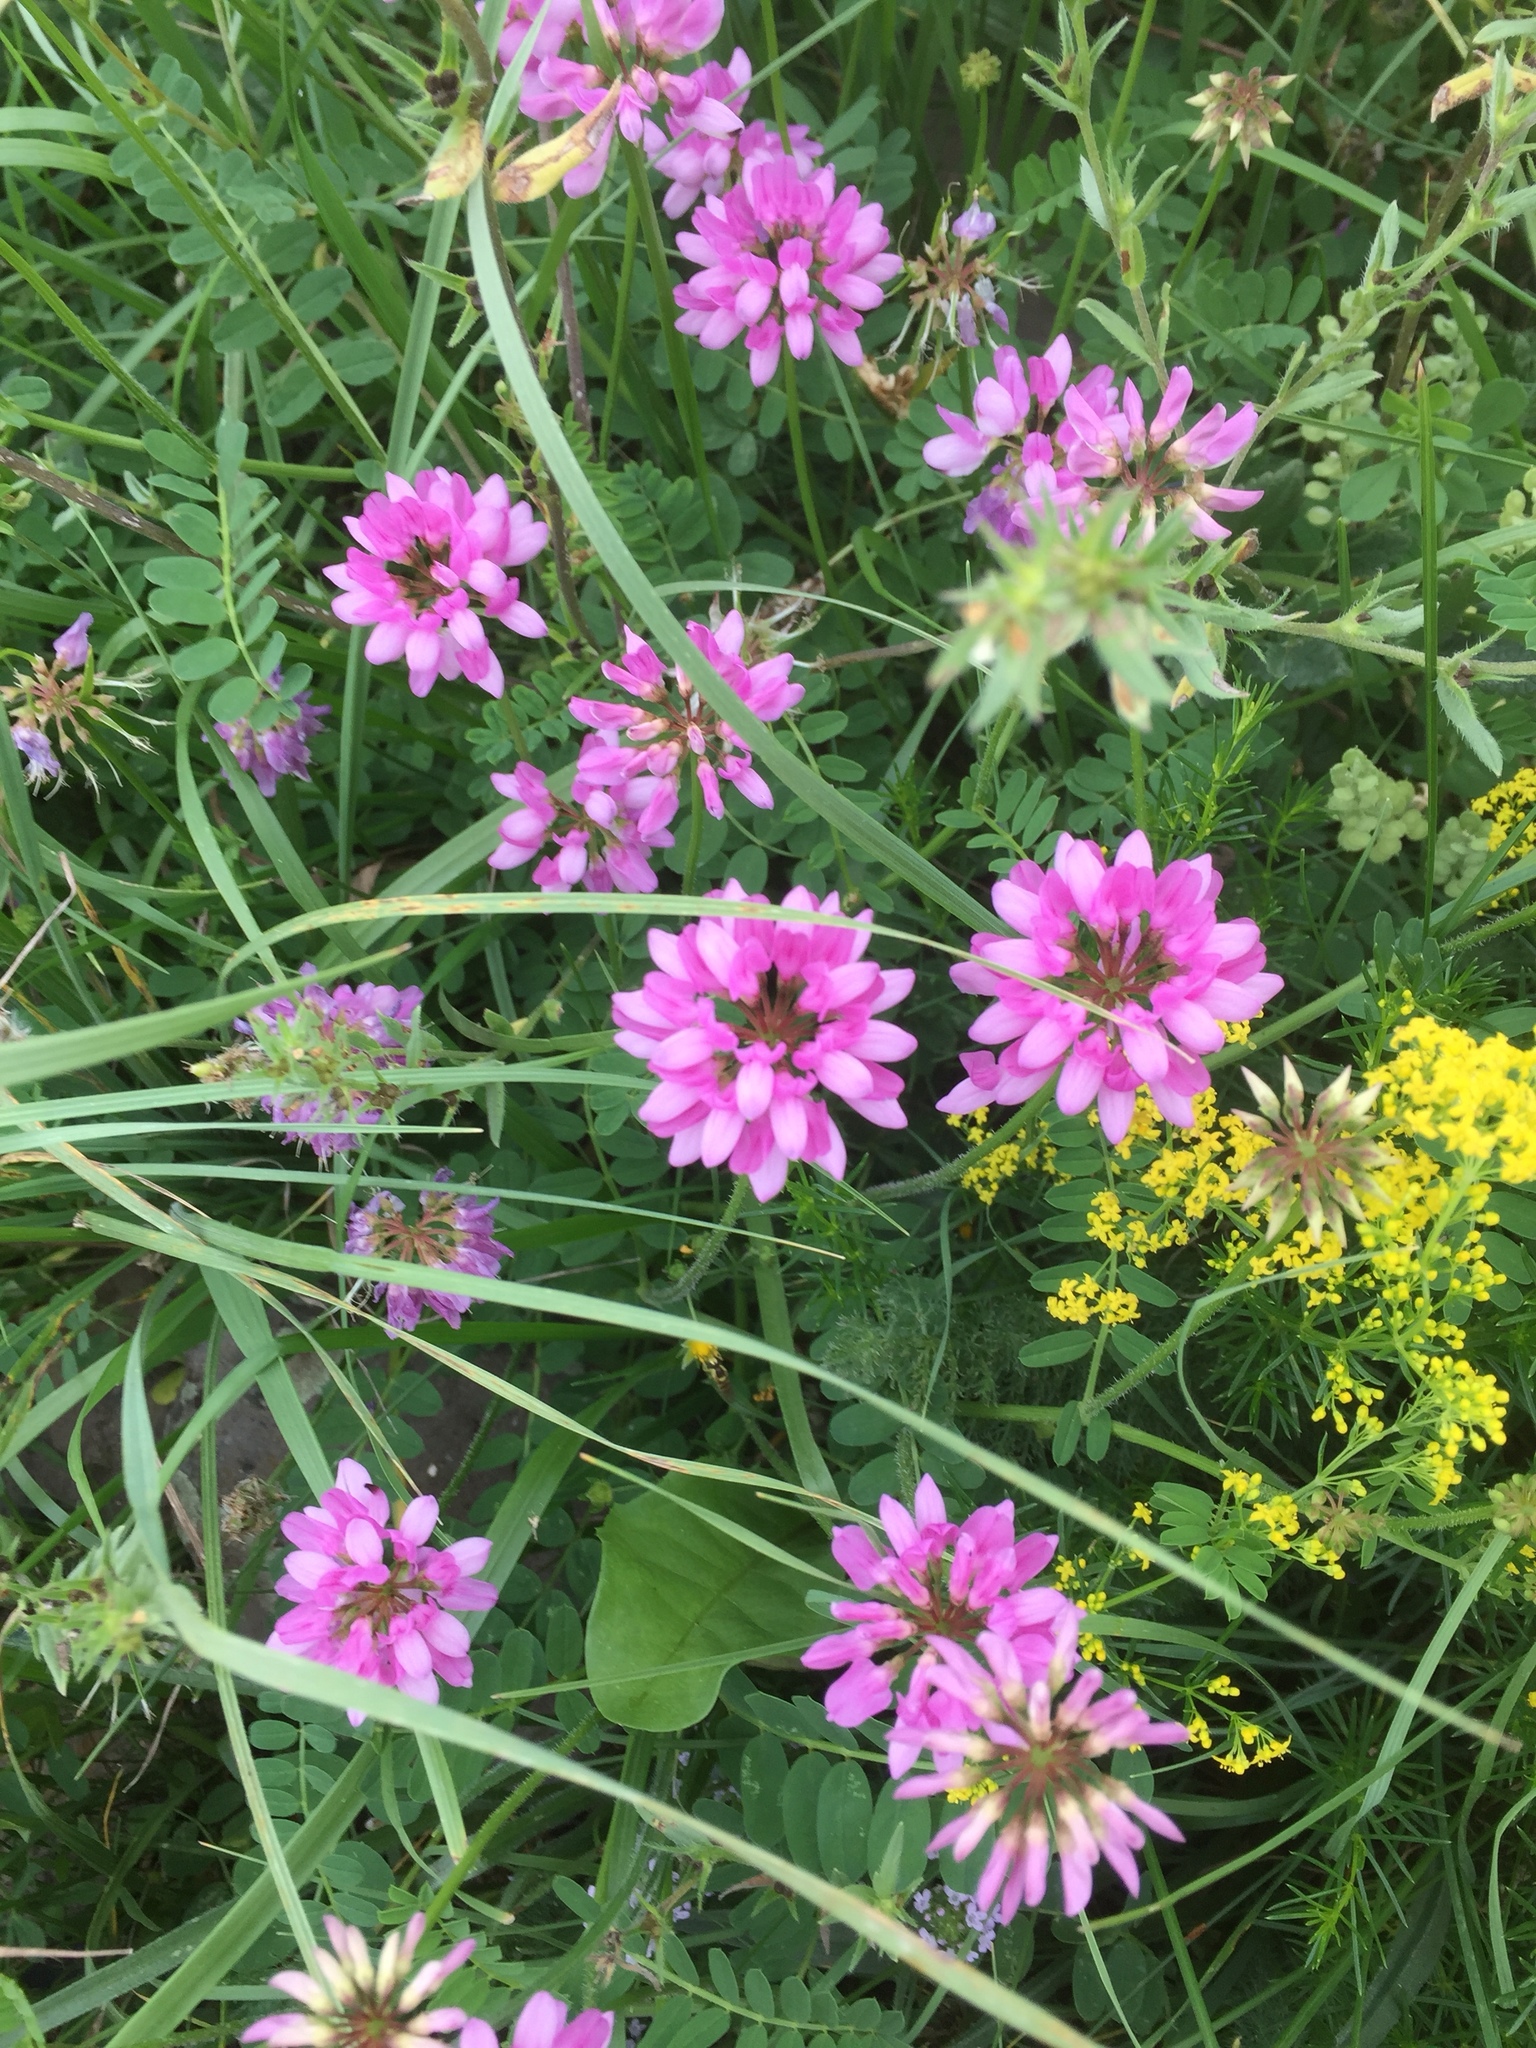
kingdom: Plantae
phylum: Tracheophyta
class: Magnoliopsida
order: Fabales
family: Fabaceae
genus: Coronilla
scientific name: Coronilla varia
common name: Crownvetch
